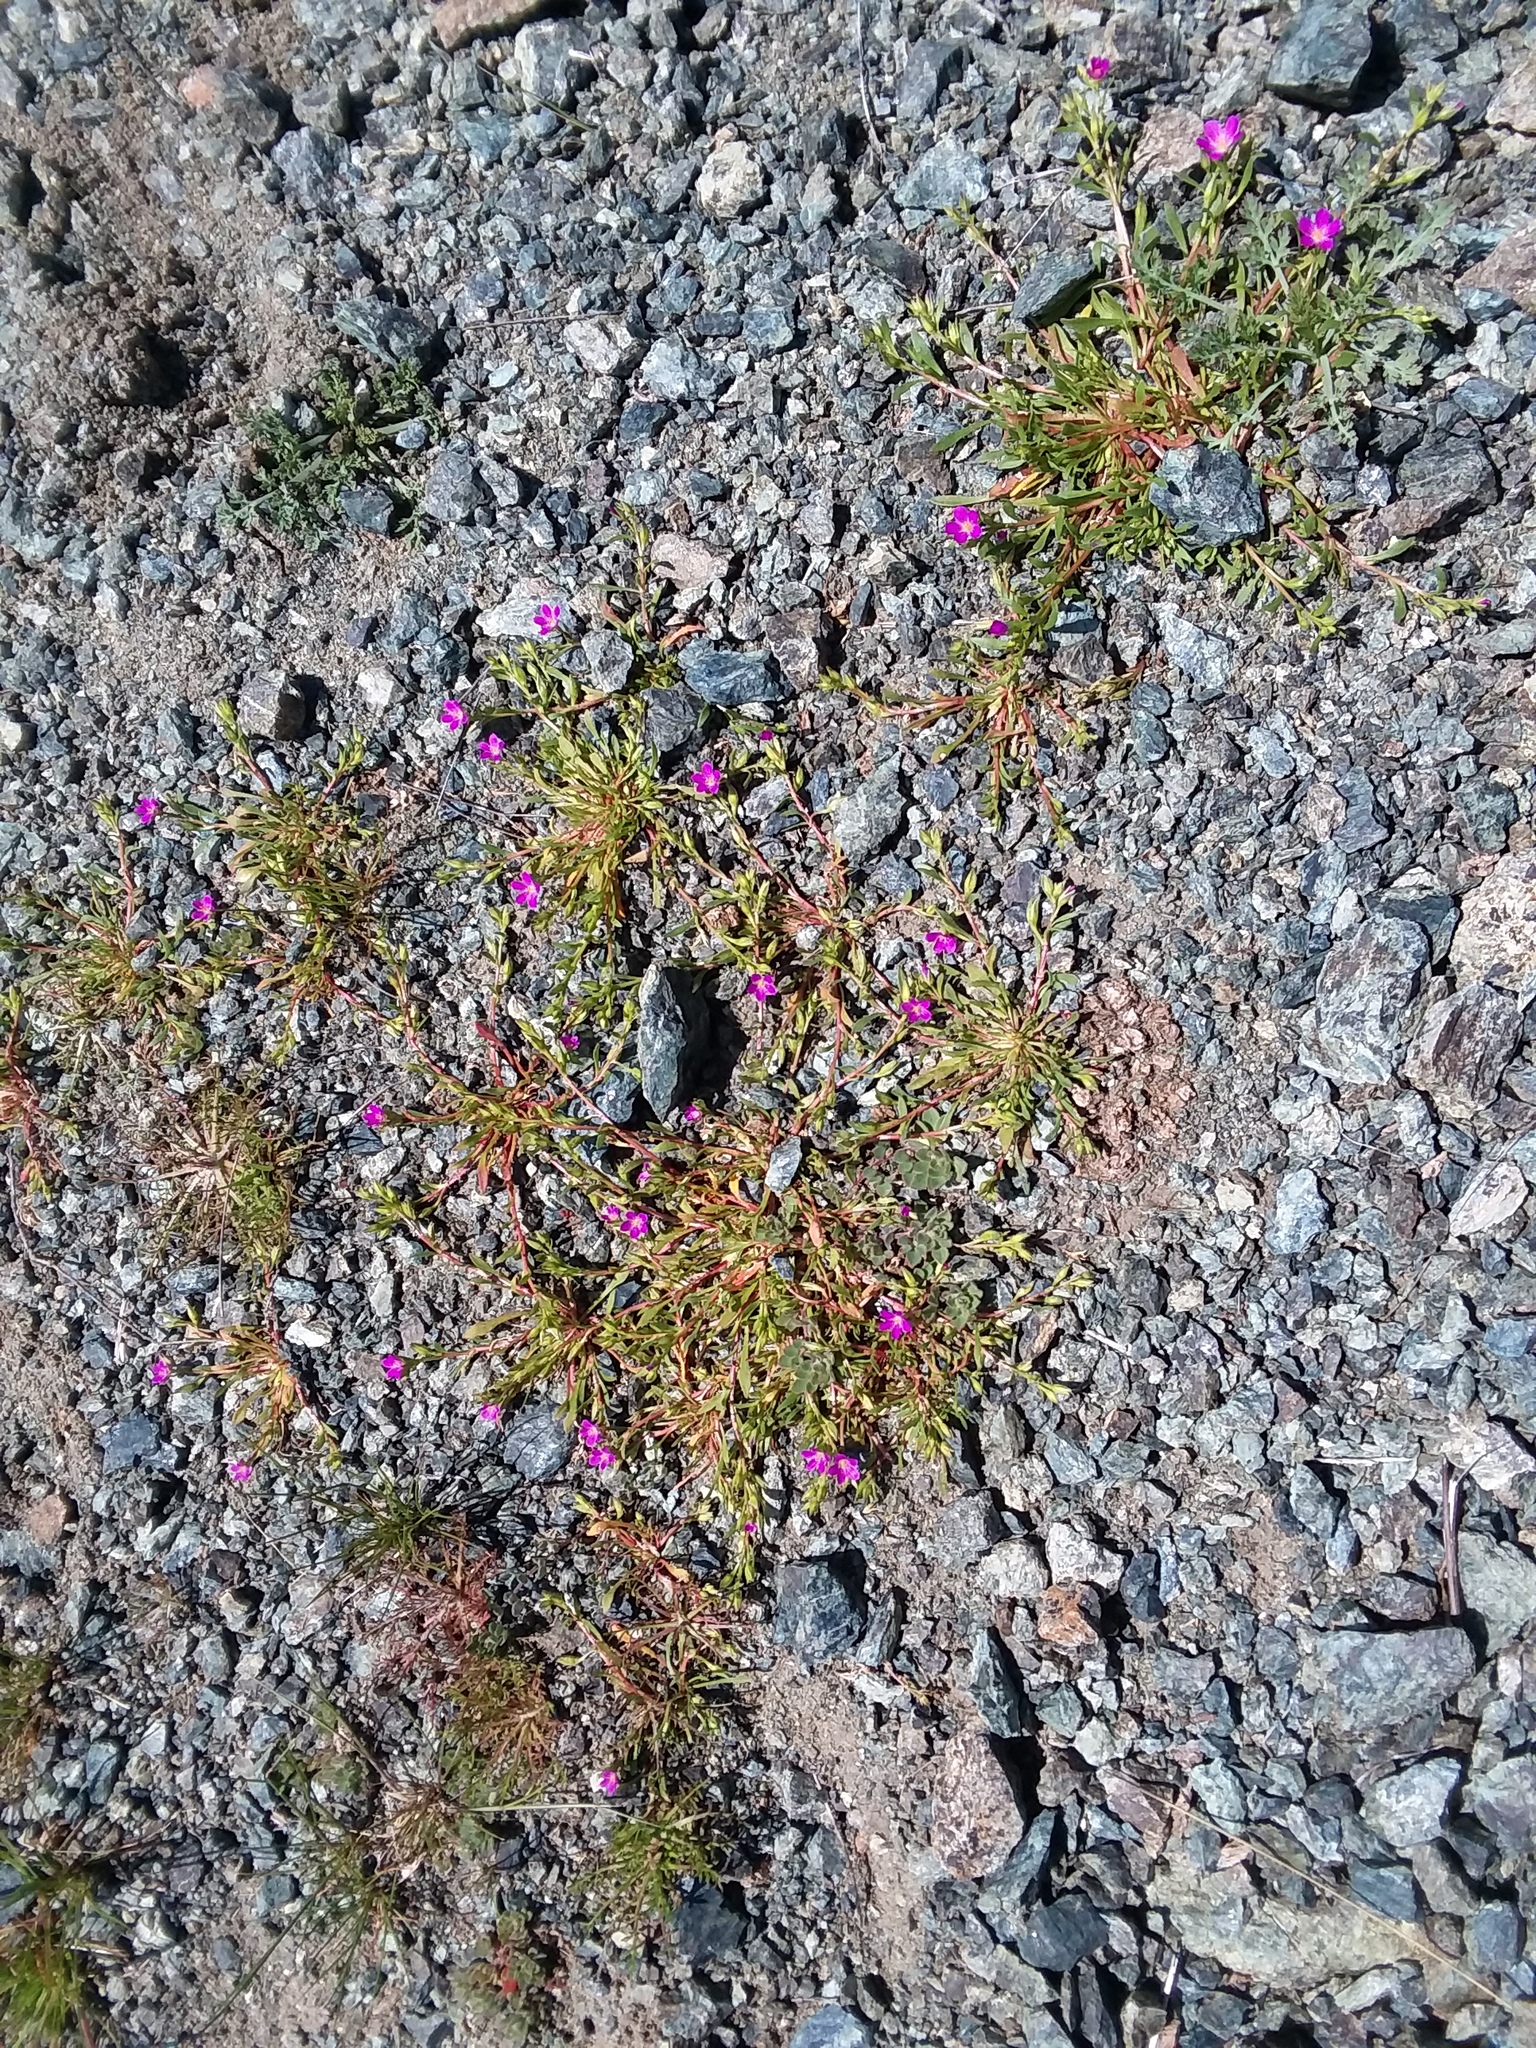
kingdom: Plantae
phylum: Tracheophyta
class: Magnoliopsida
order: Caryophyllales
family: Montiaceae
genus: Calandrinia
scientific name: Calandrinia menziesii
